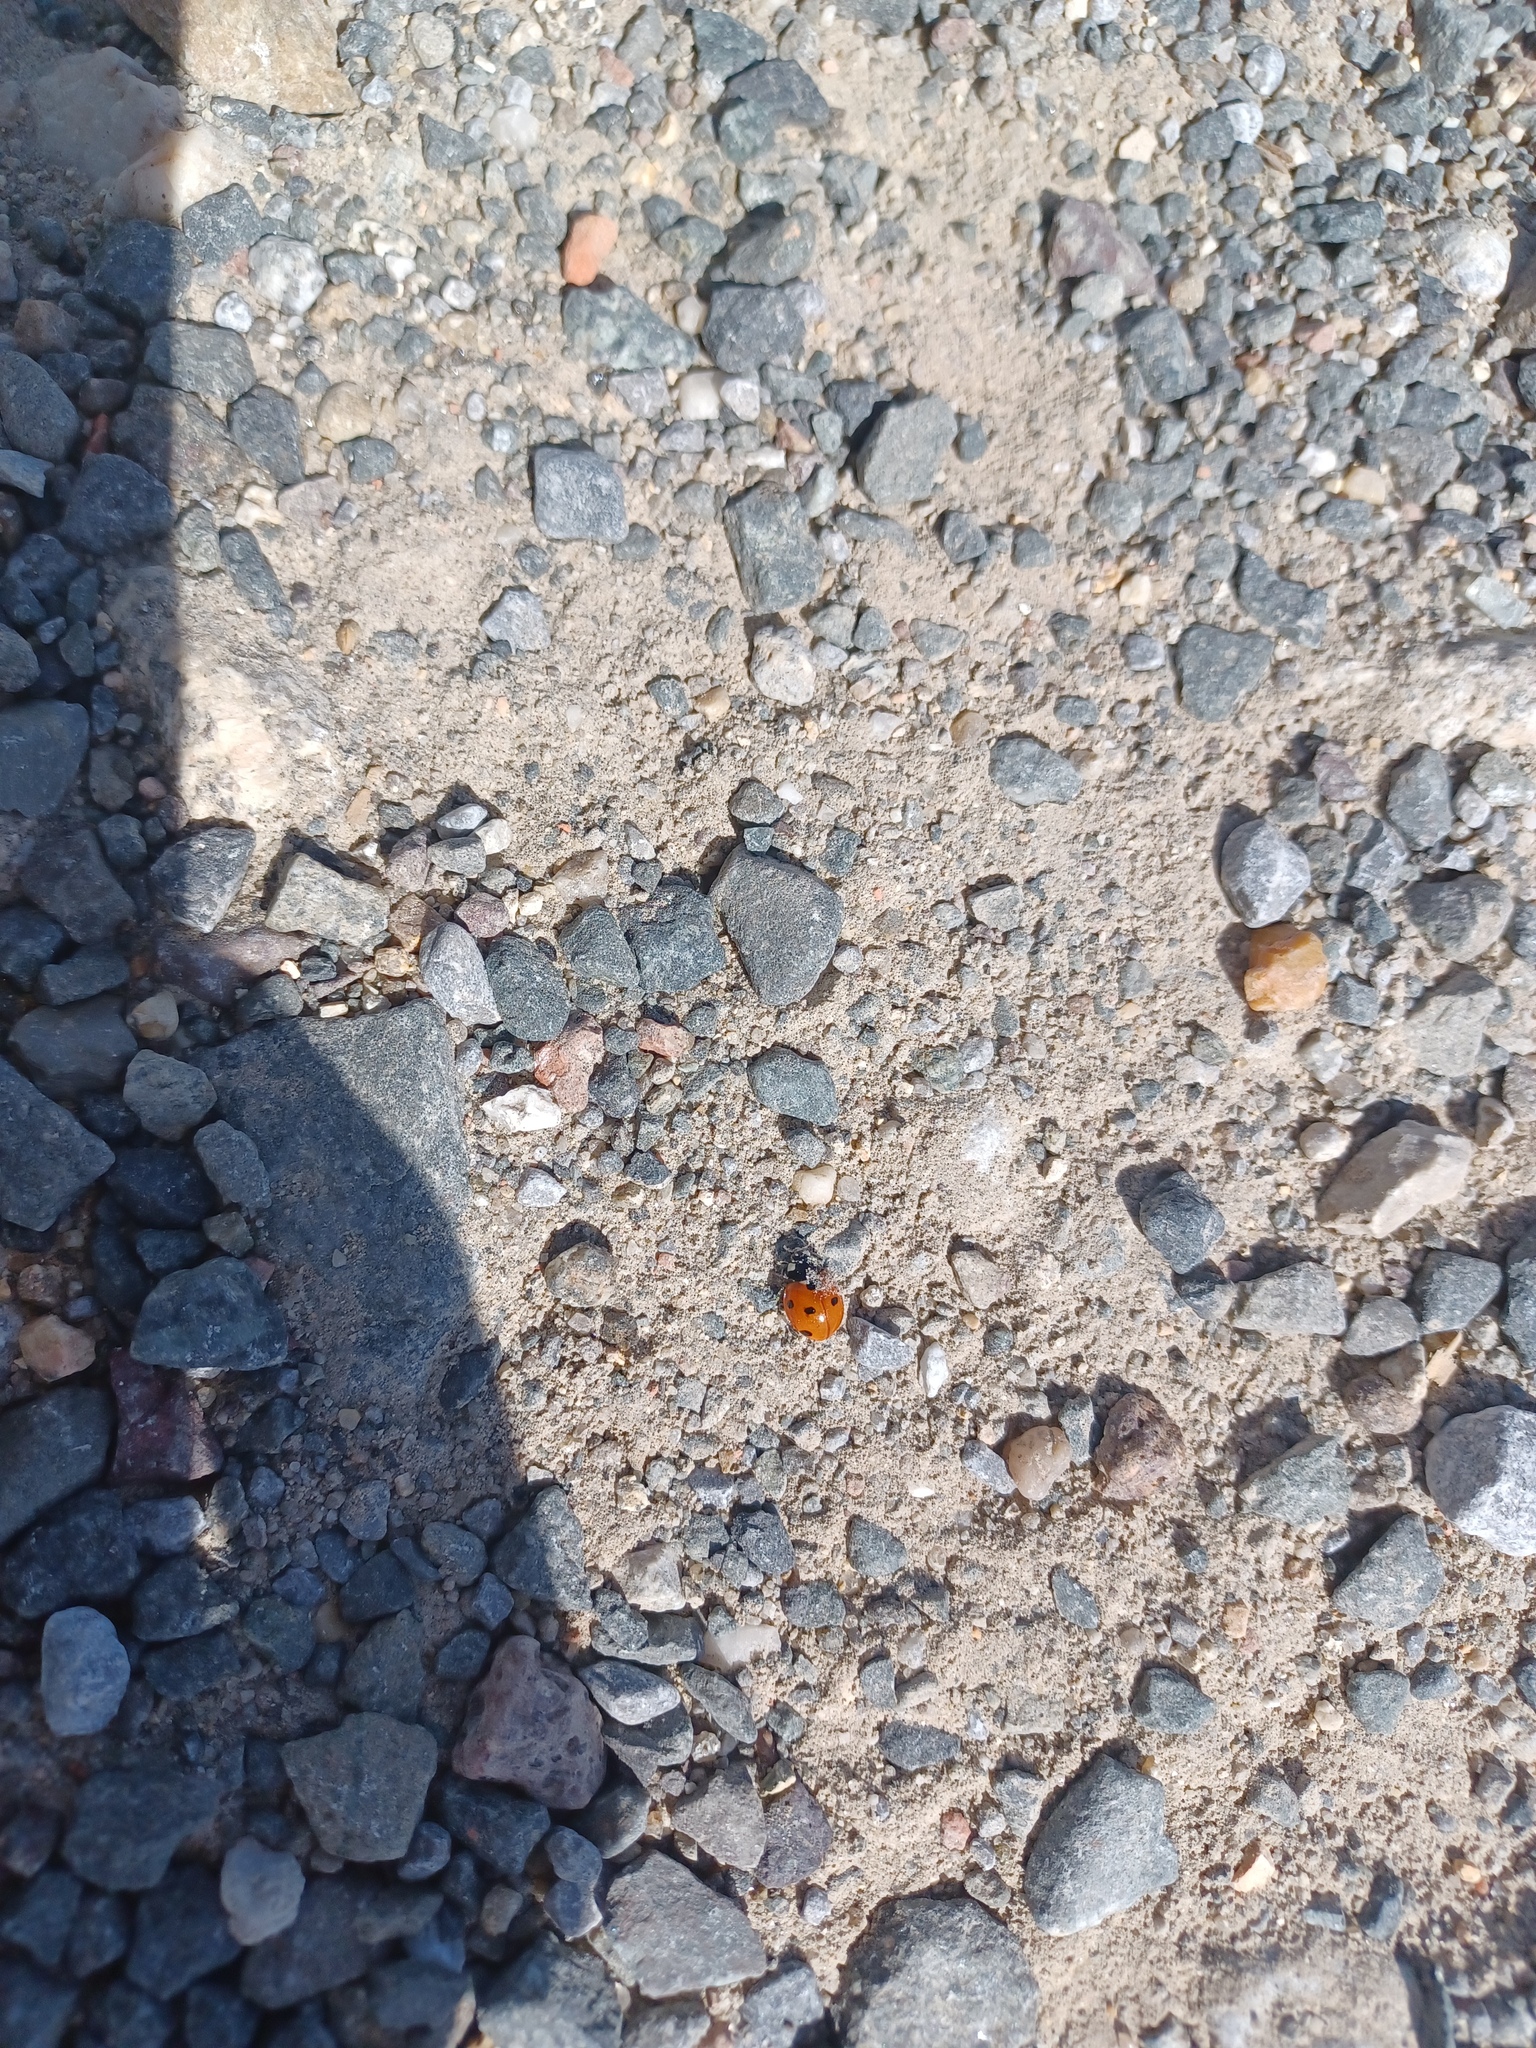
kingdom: Animalia
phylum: Arthropoda
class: Insecta
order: Coleoptera
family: Coccinellidae
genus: Coccinella
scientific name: Coccinella septempunctata
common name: Sevenspotted lady beetle
